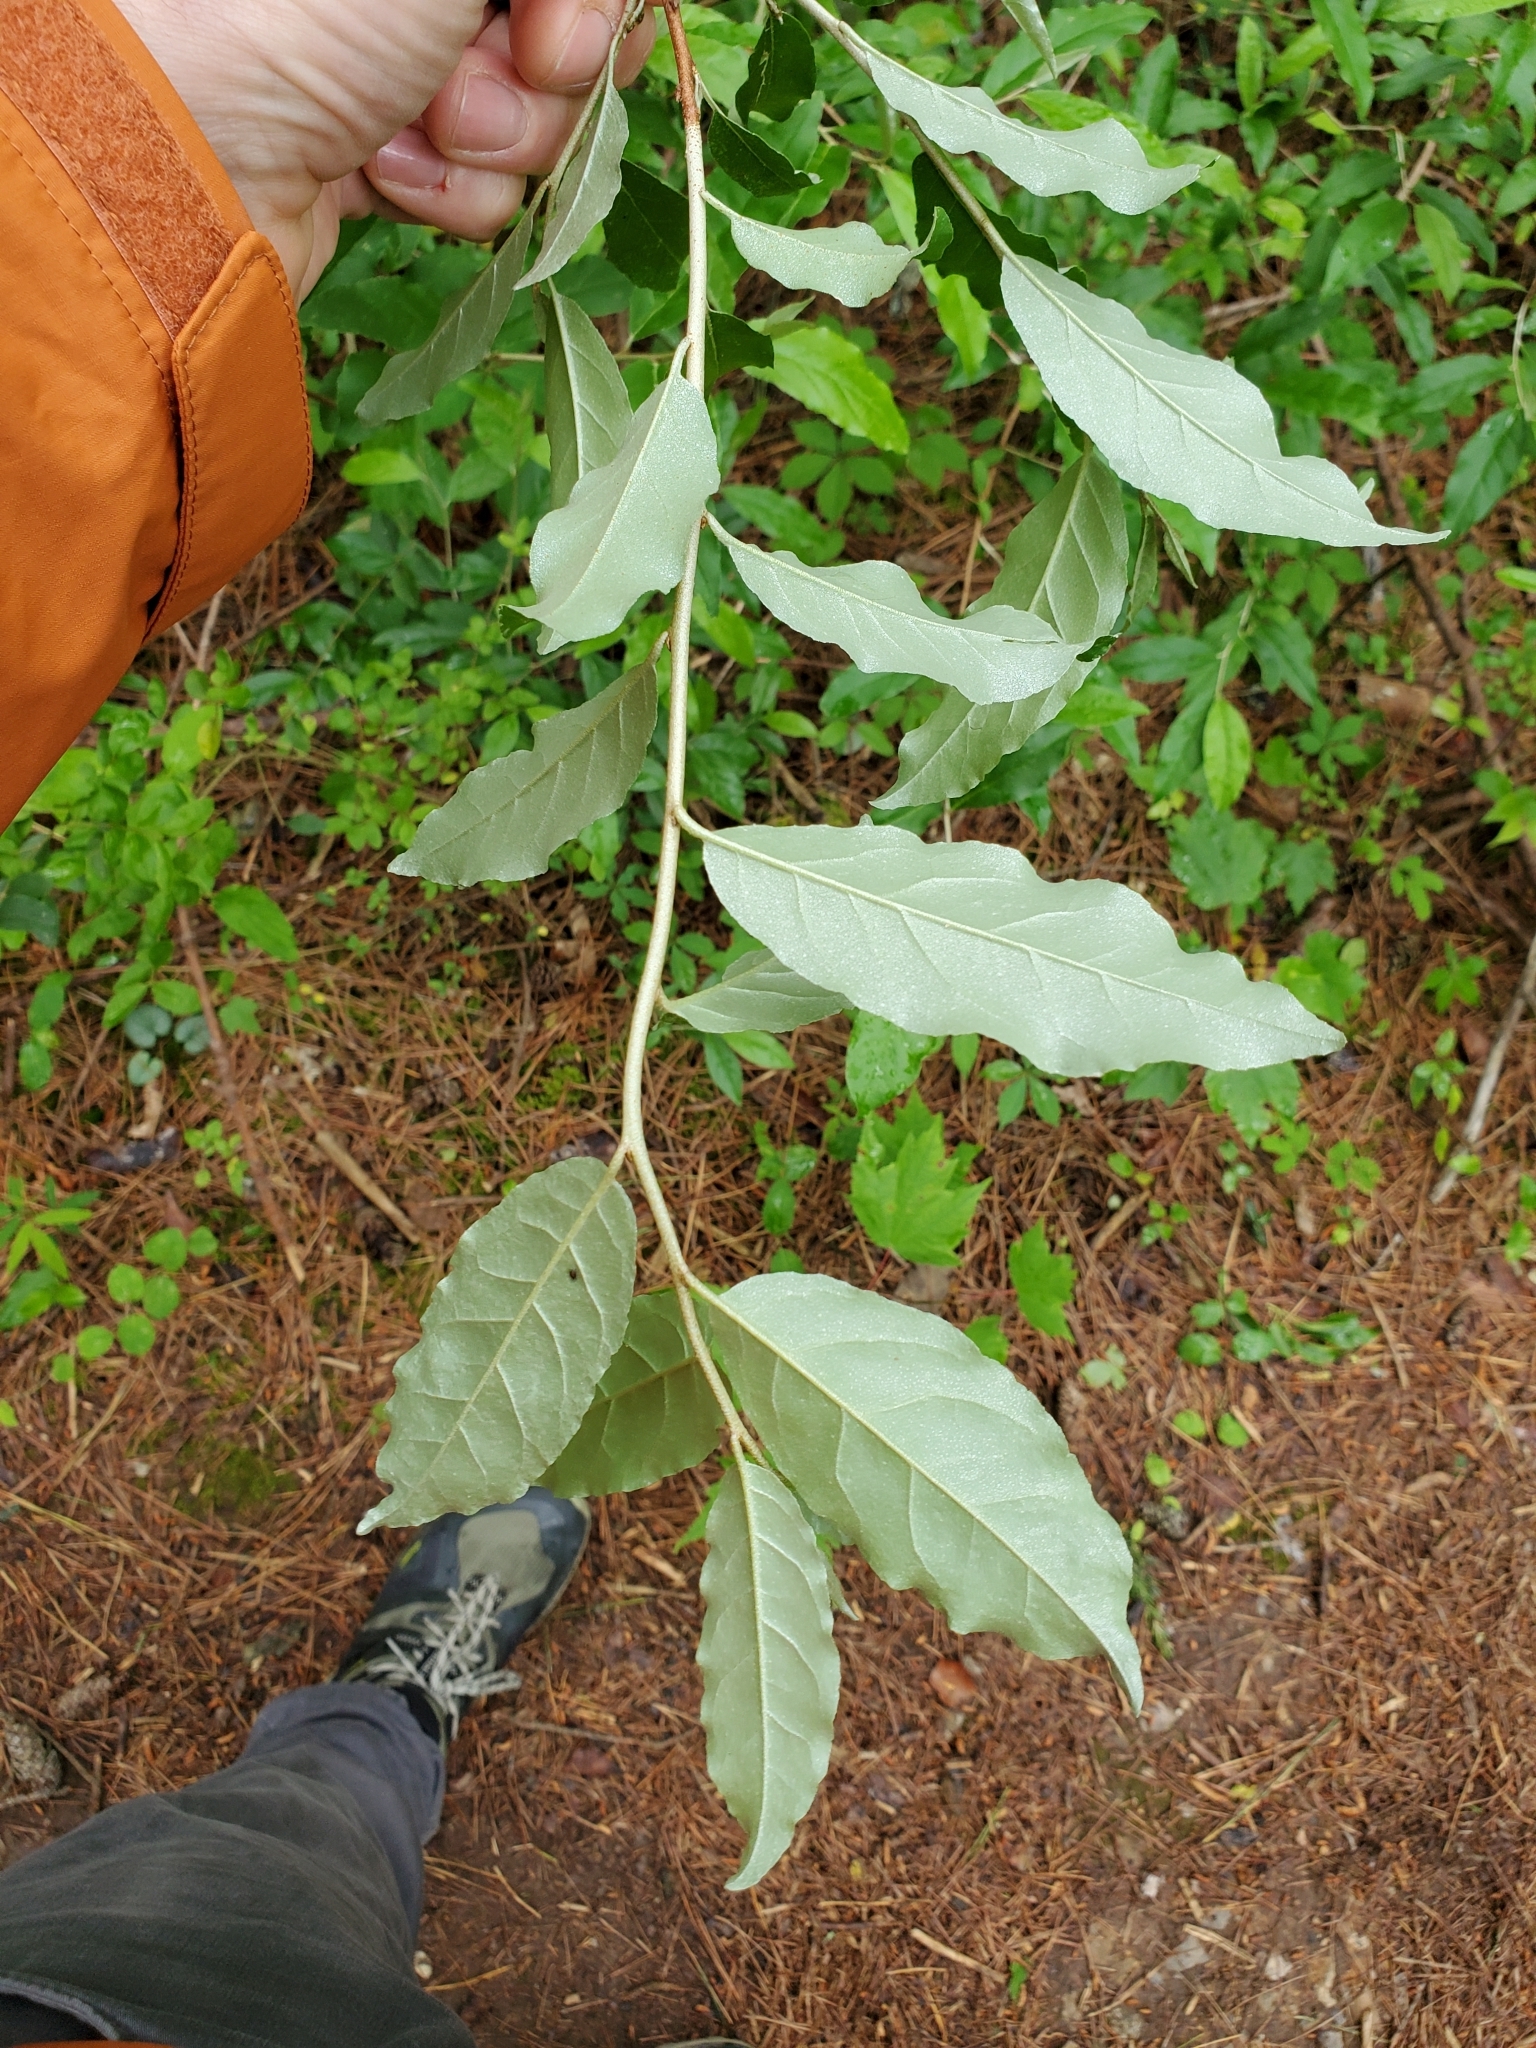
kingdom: Plantae
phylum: Tracheophyta
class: Magnoliopsida
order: Rosales
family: Elaeagnaceae
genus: Elaeagnus
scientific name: Elaeagnus umbellata
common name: Autumn olive
